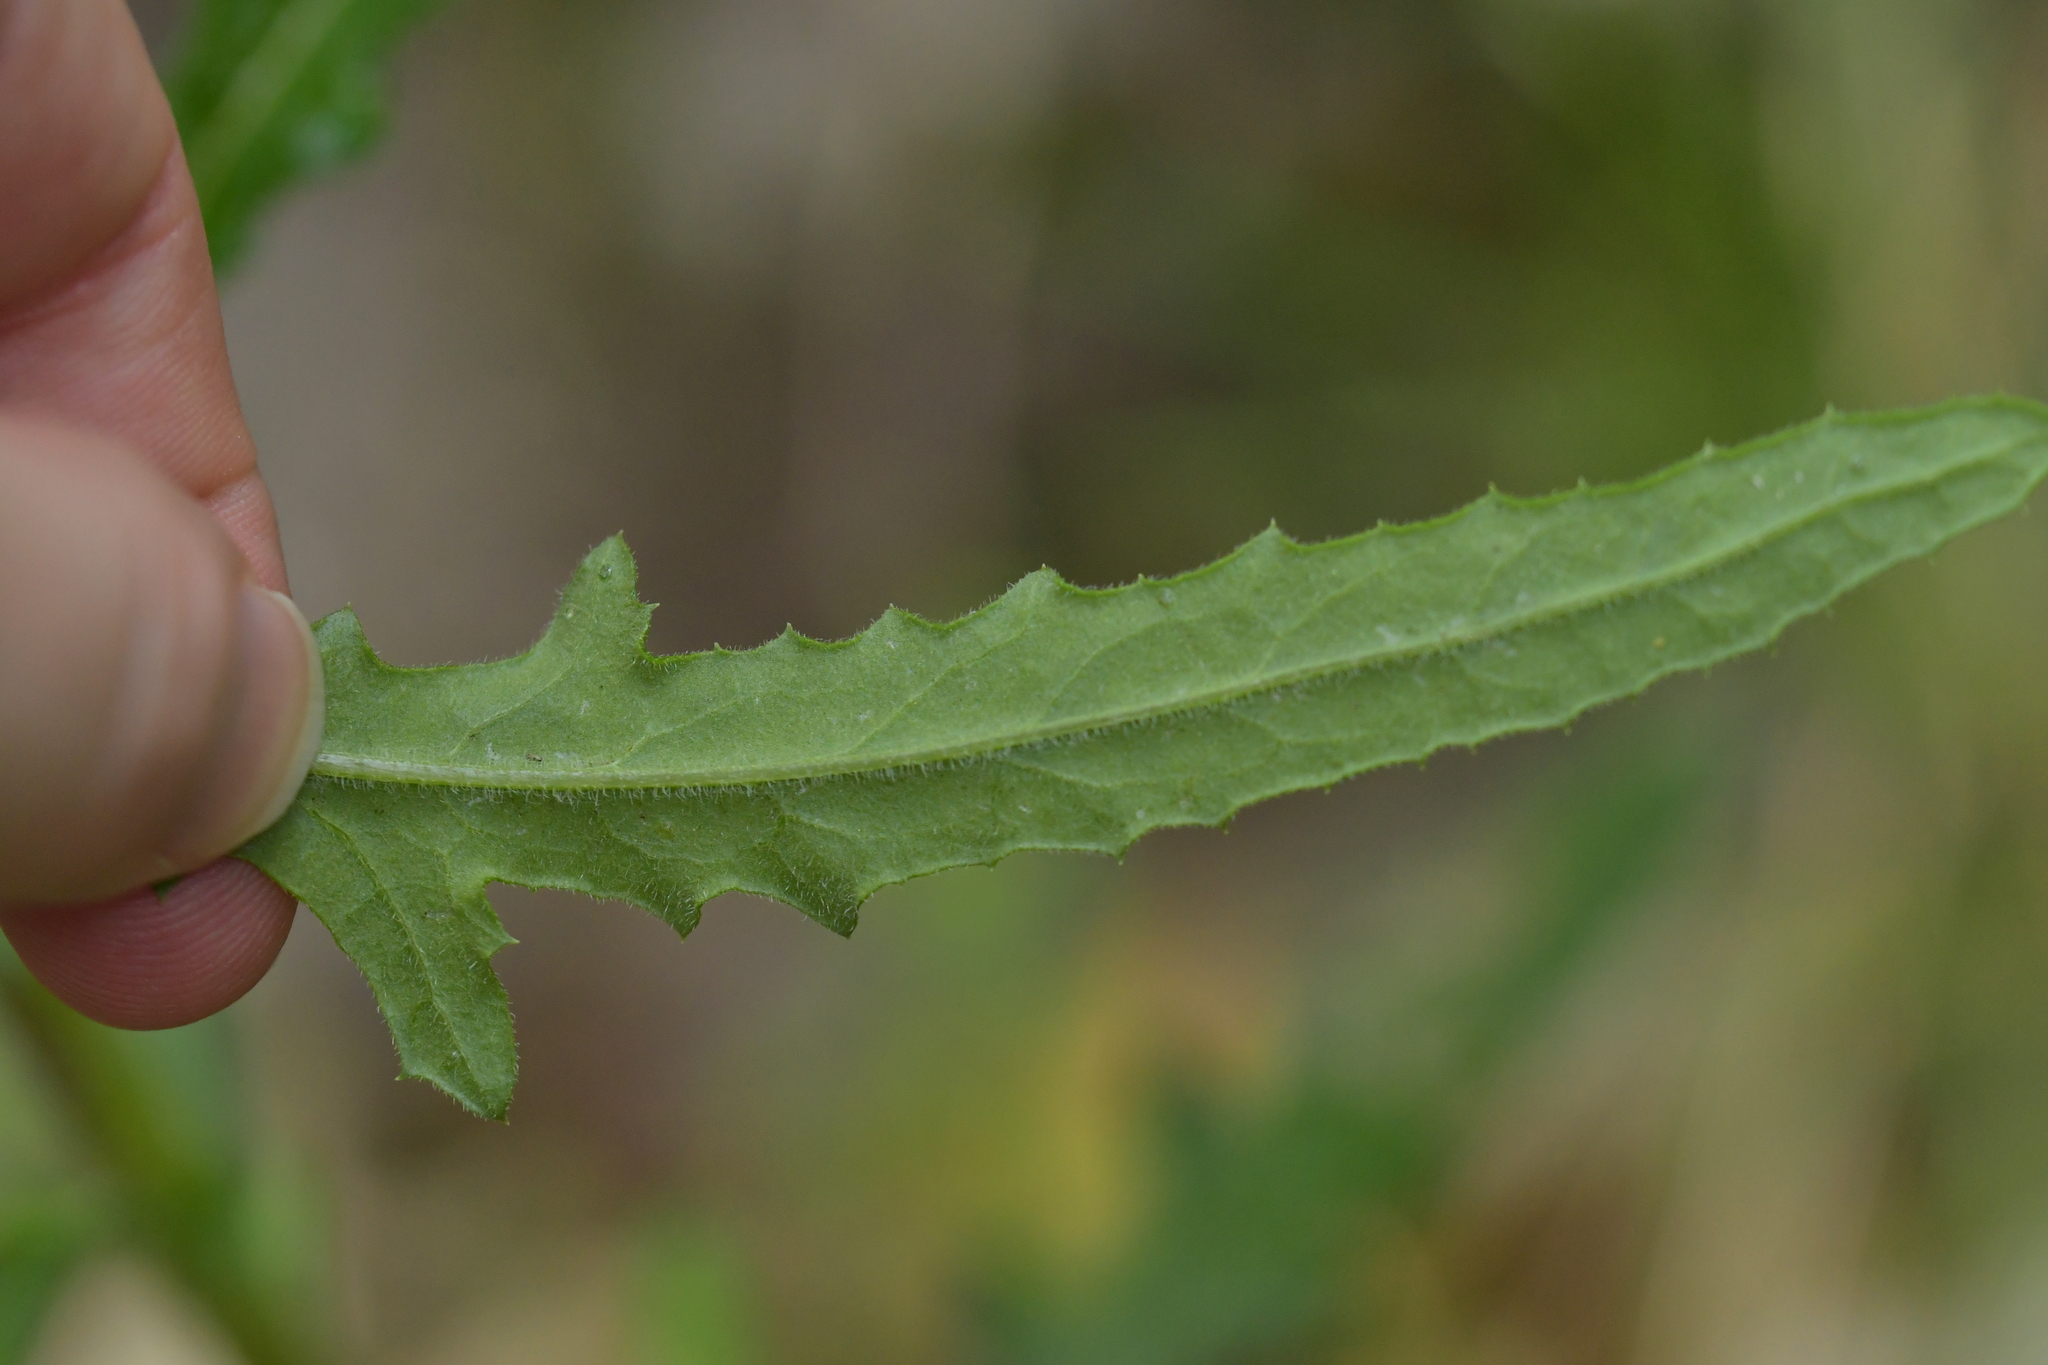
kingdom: Plantae
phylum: Tracheophyta
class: Magnoliopsida
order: Asterales
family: Asteraceae
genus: Senecio
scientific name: Senecio hispidulus
